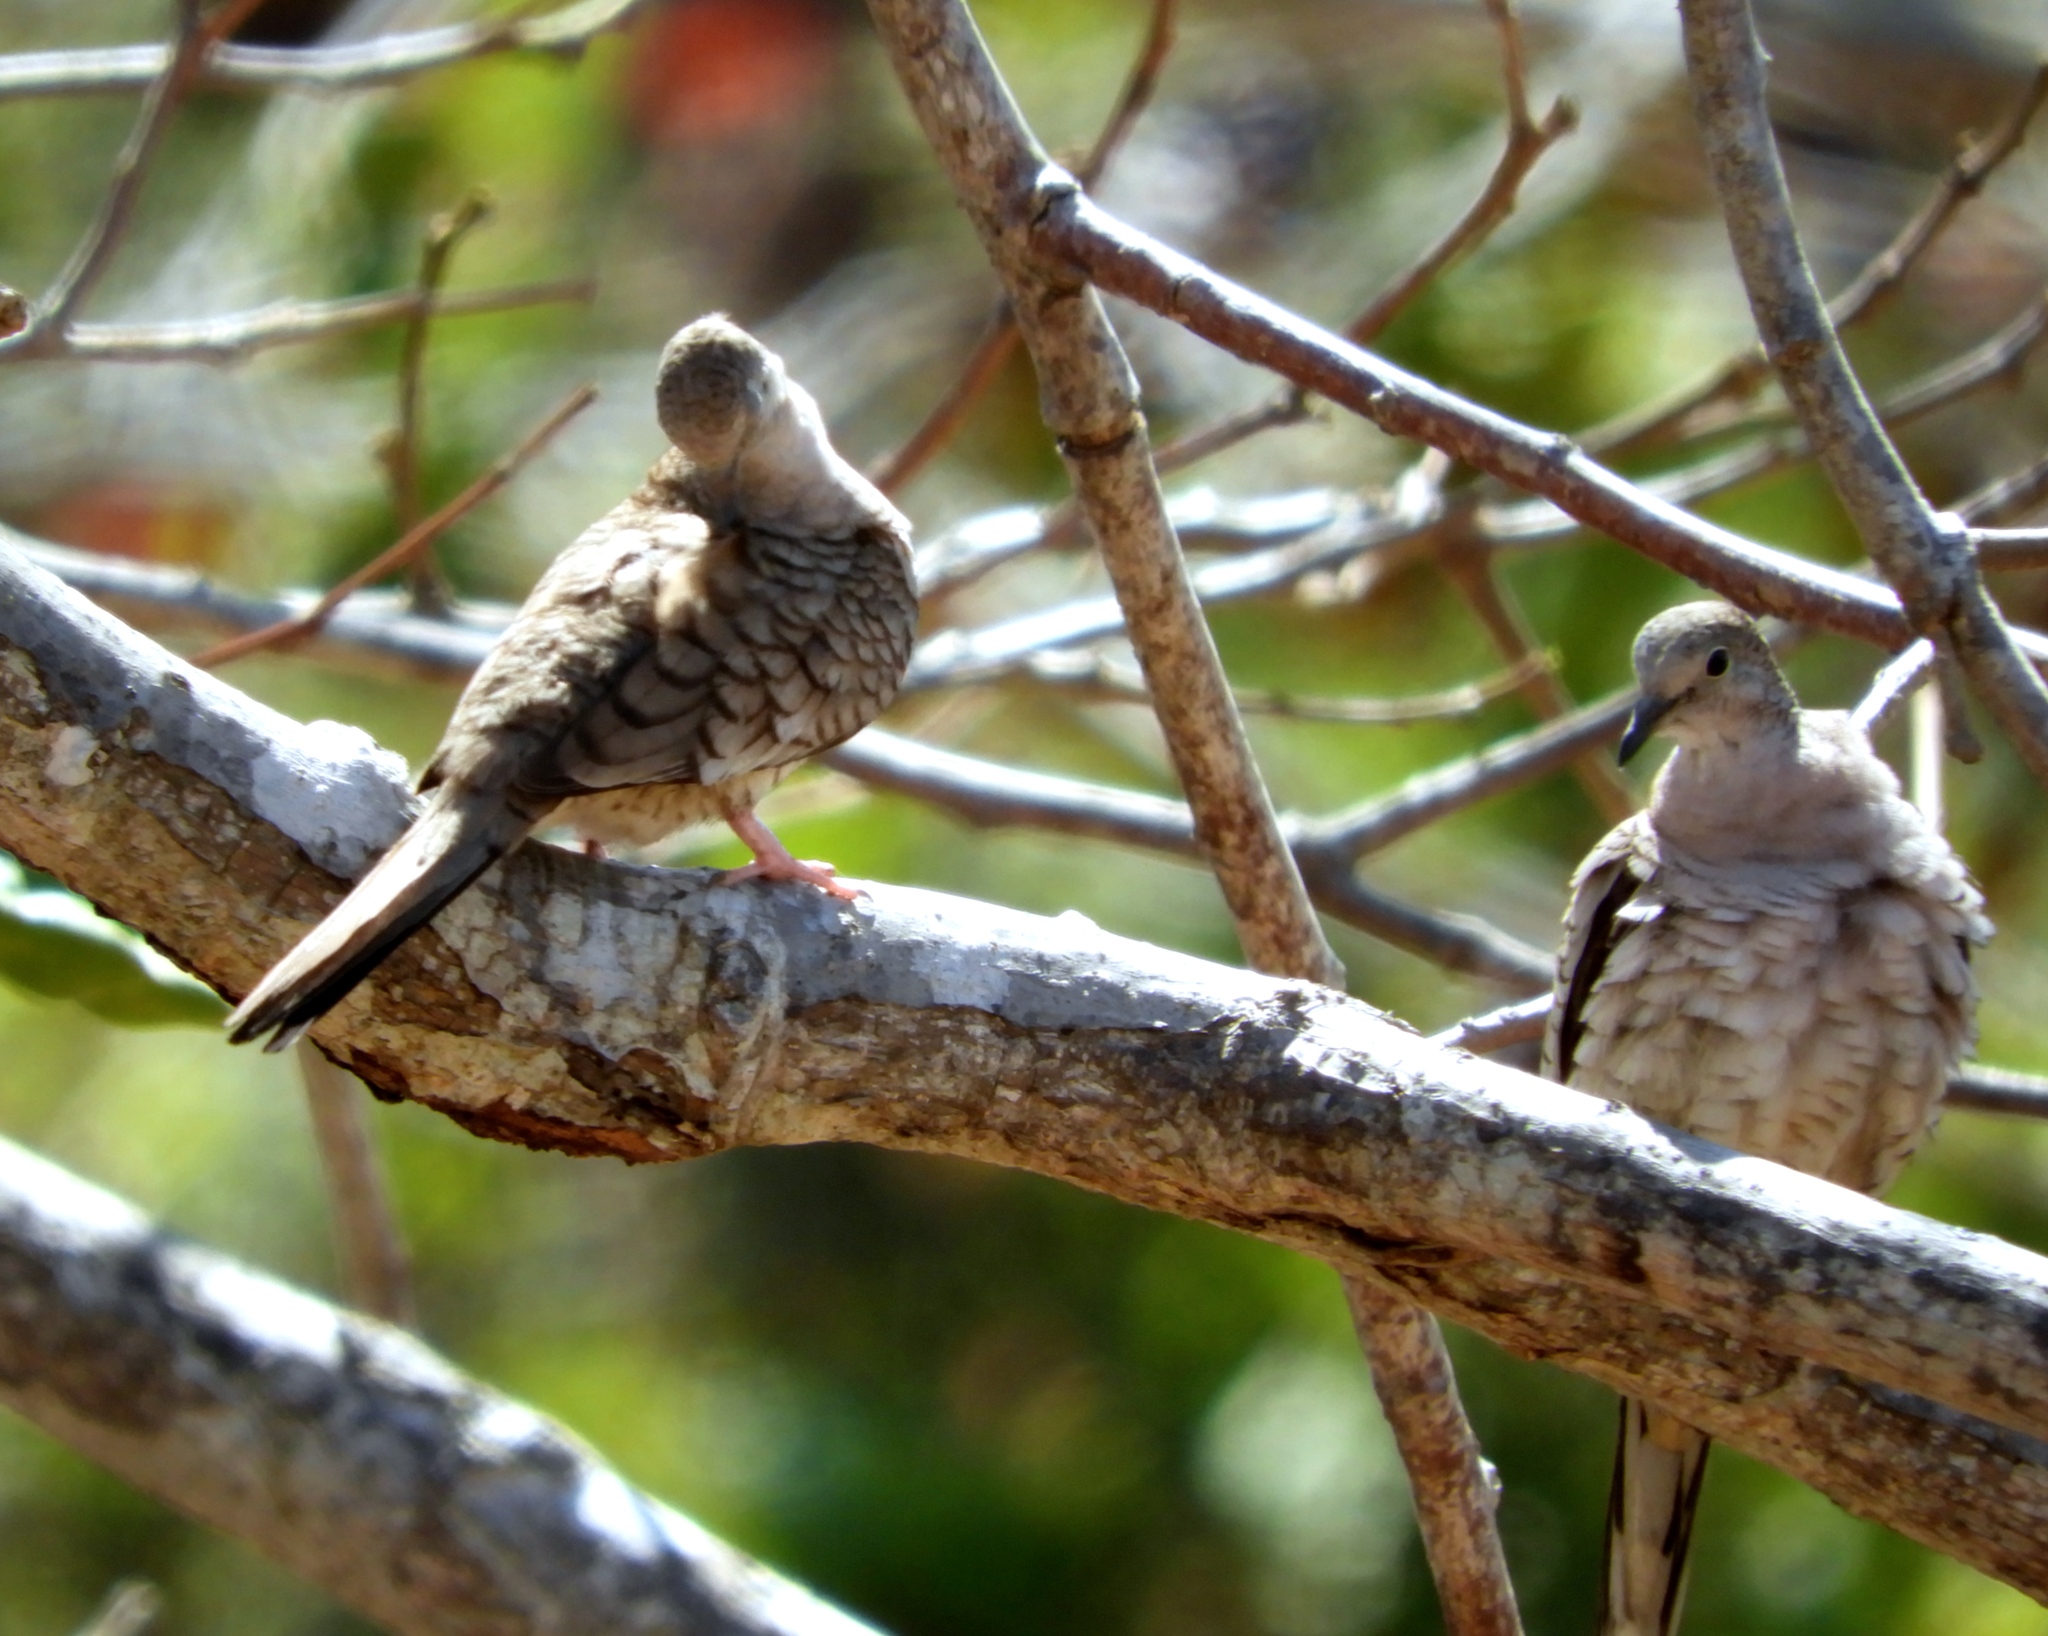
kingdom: Animalia
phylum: Chordata
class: Aves
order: Columbiformes
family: Columbidae
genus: Columbina
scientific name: Columbina inca
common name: Inca dove
